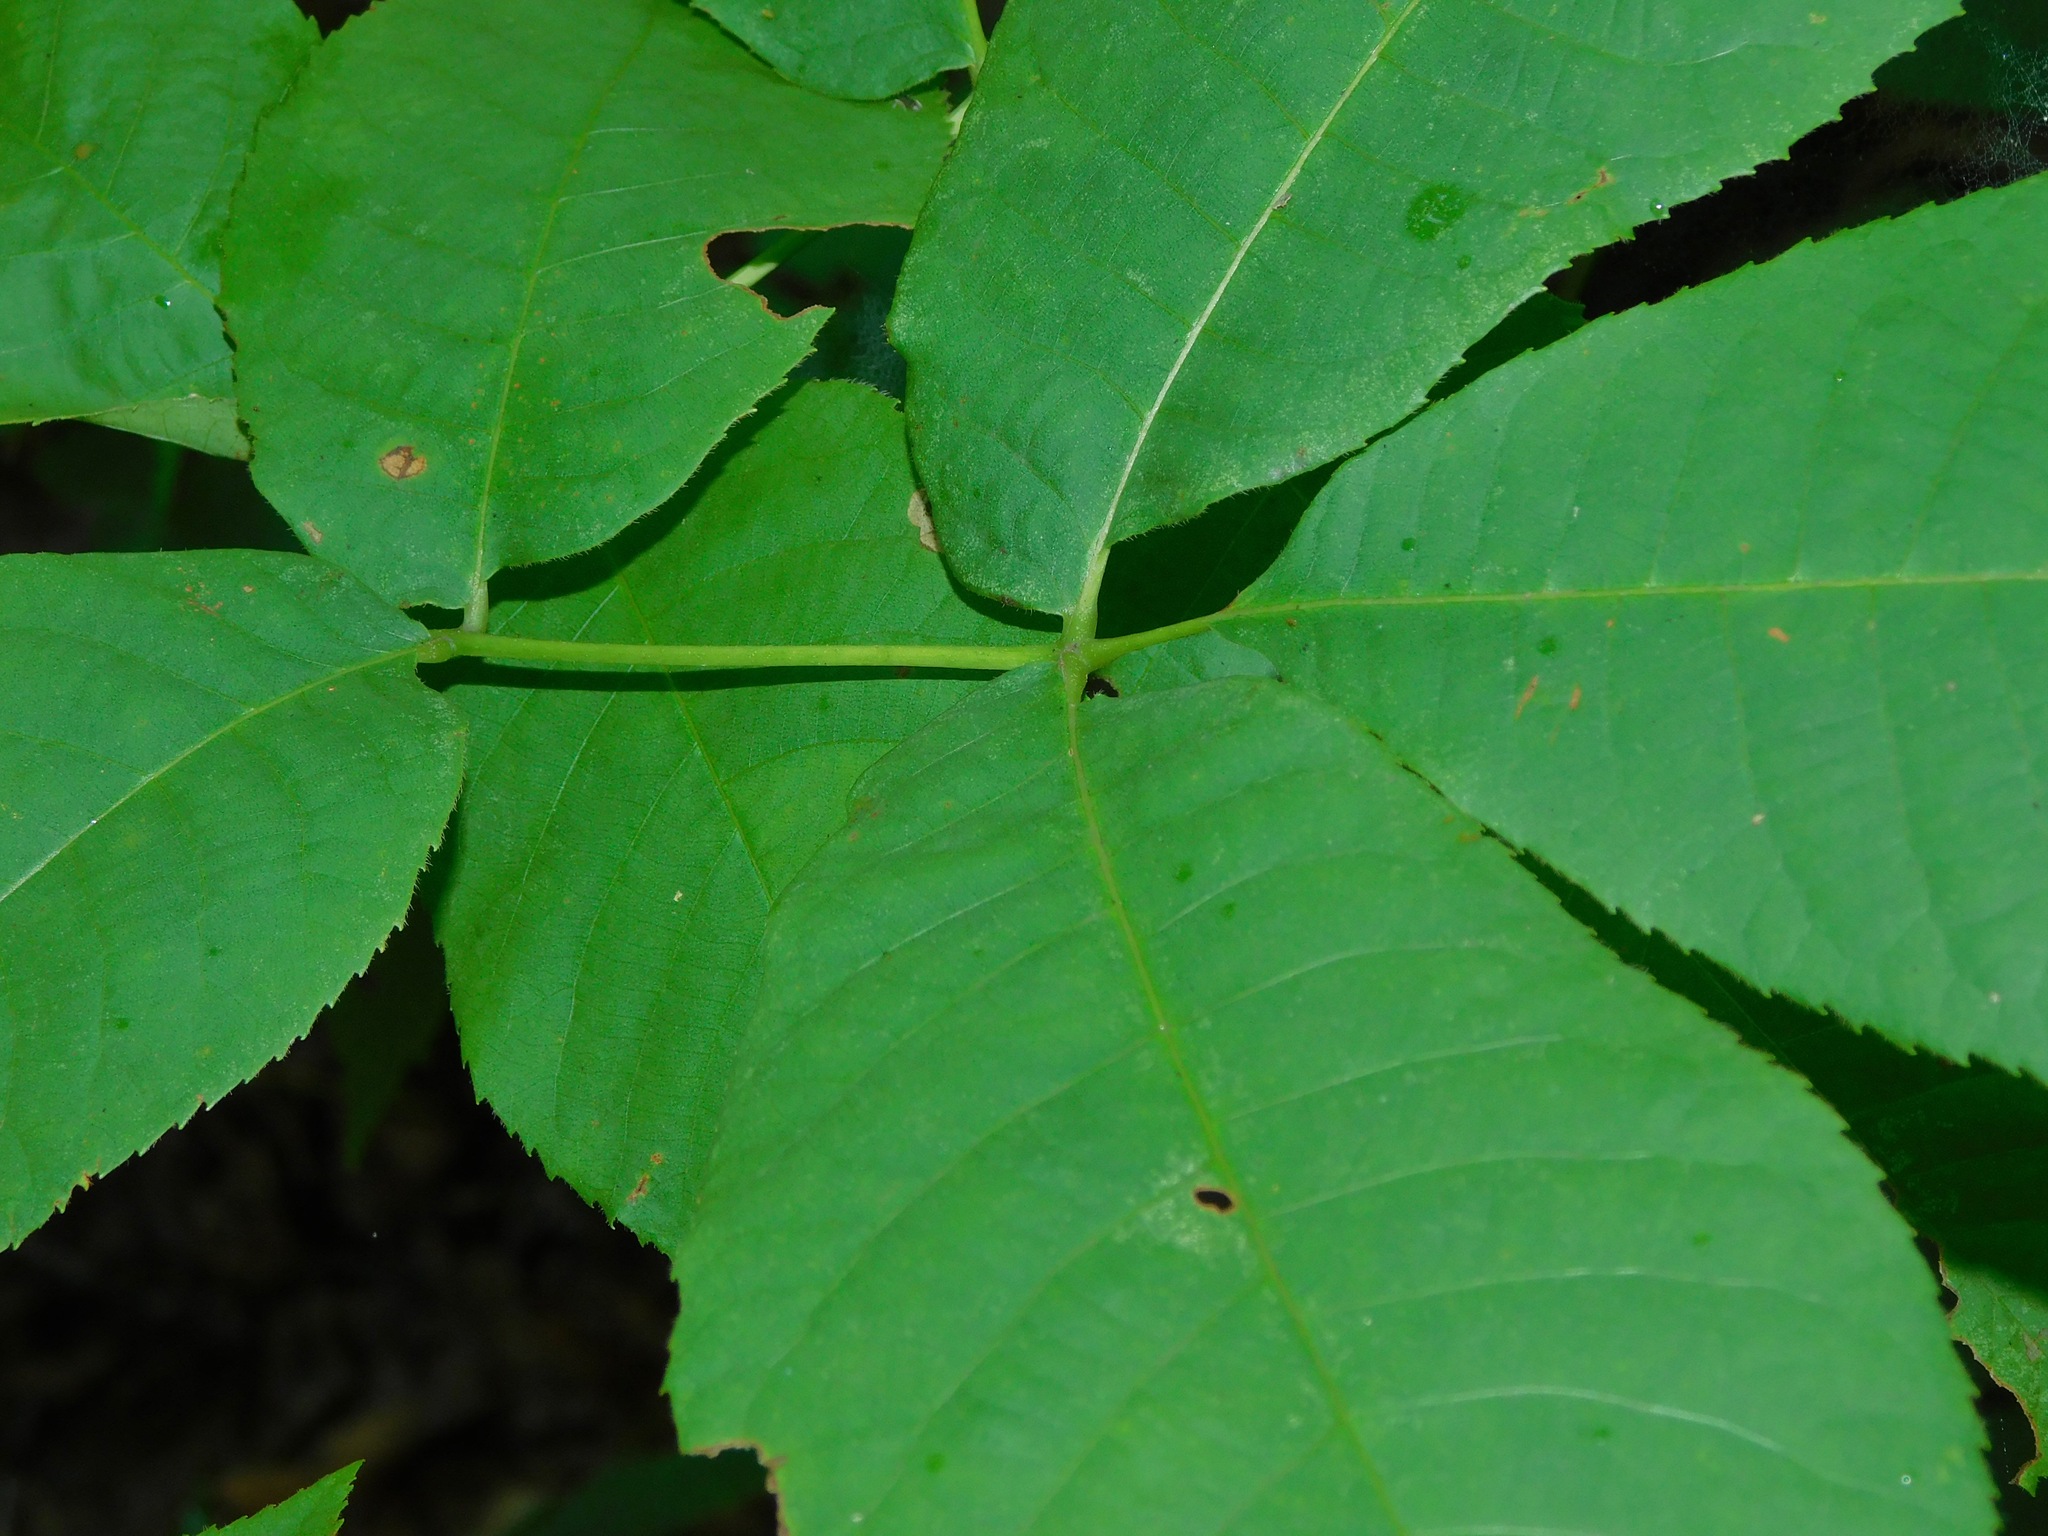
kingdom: Plantae
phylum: Tracheophyta
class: Magnoliopsida
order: Fagales
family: Juglandaceae
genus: Carya
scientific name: Carya glabra
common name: Pignut hickory
